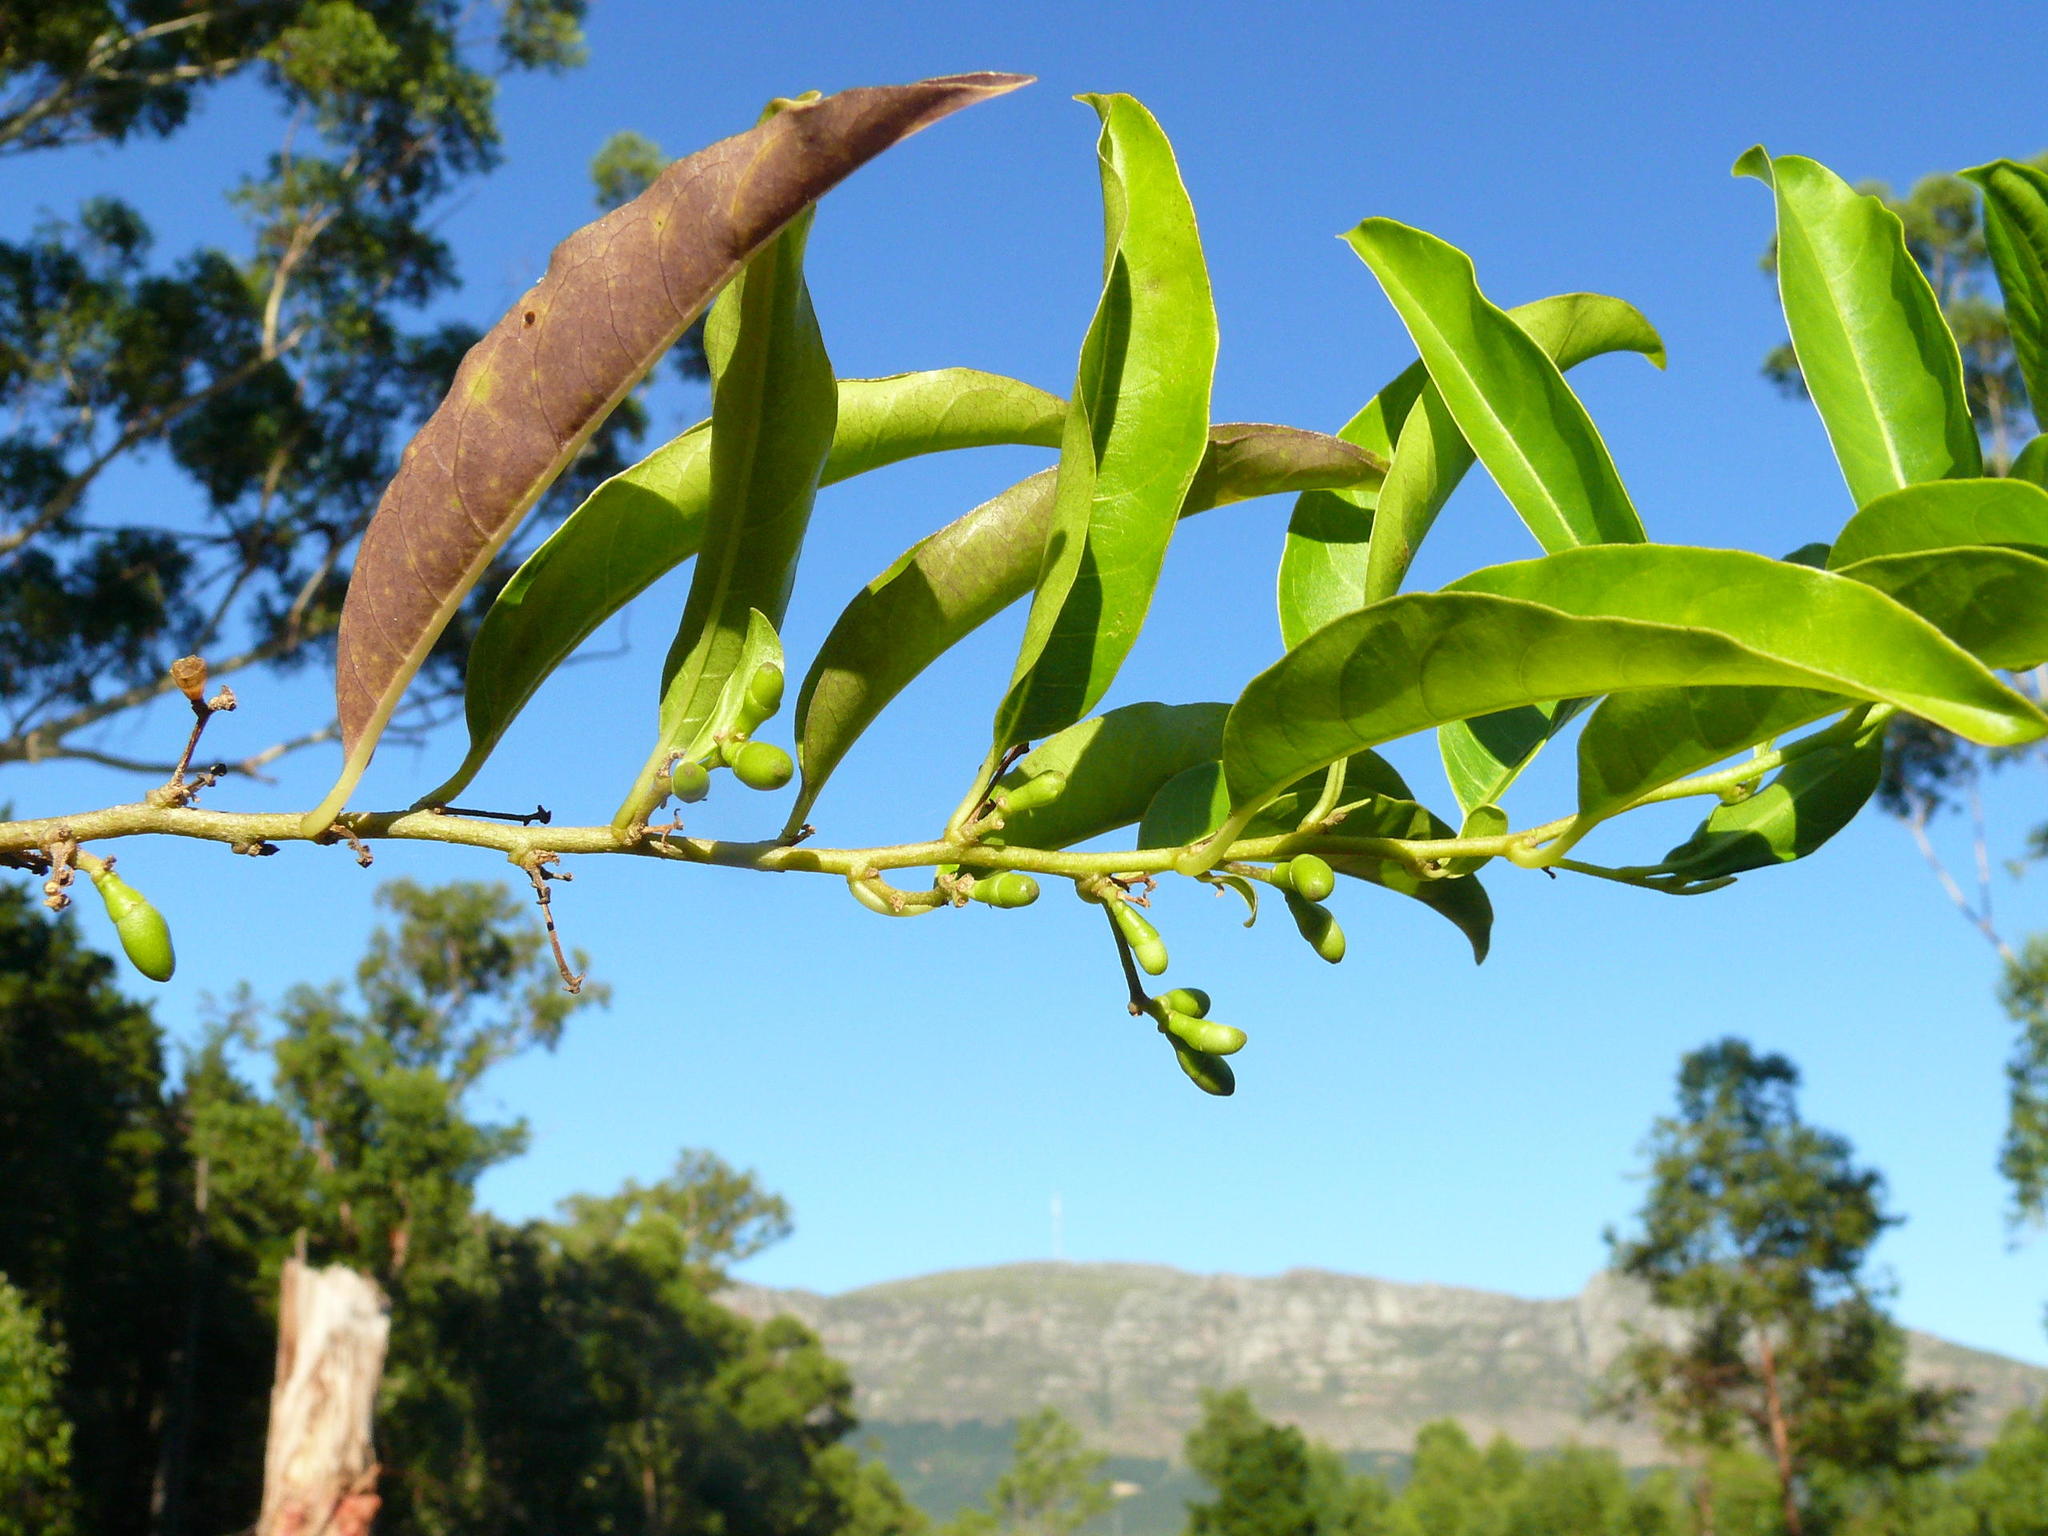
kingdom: Plantae
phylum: Tracheophyta
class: Magnoliopsida
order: Solanales
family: Solanaceae
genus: Cestrum
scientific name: Cestrum laevigatum
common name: Inkberry
